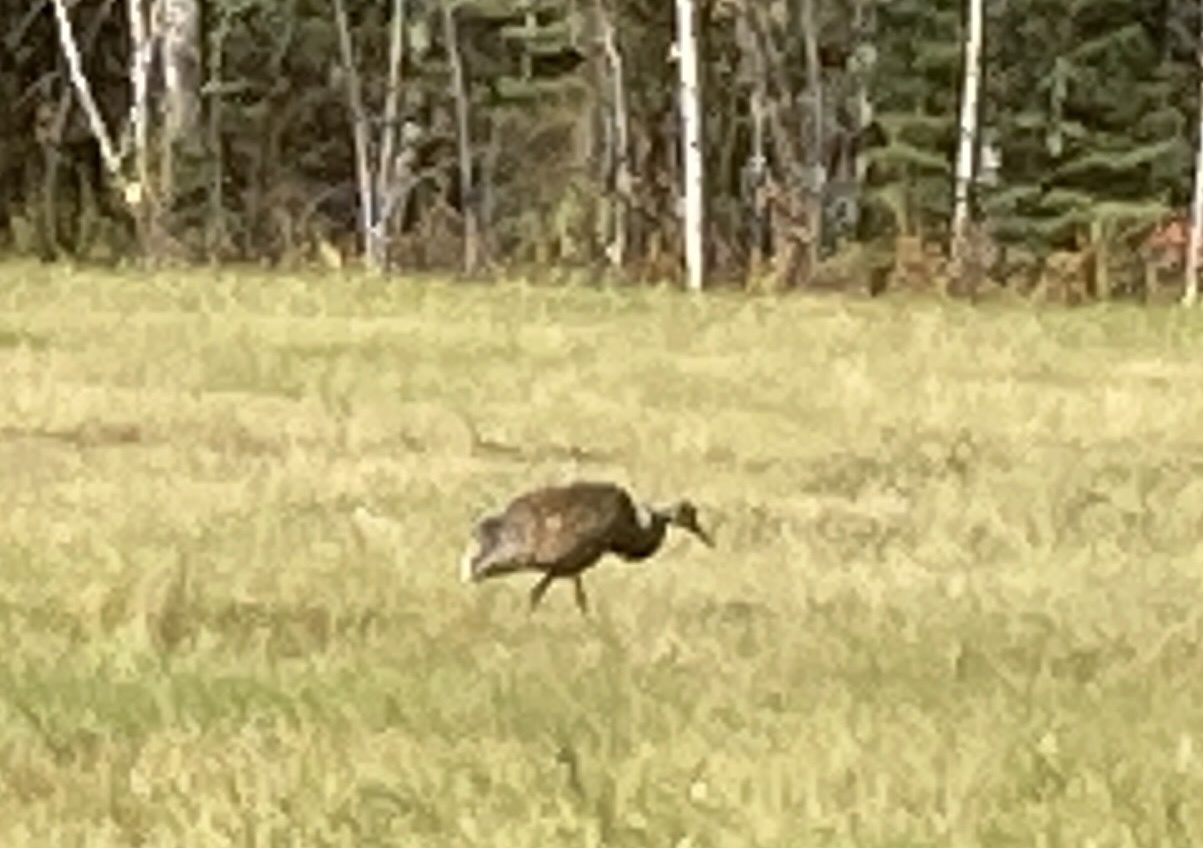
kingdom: Animalia
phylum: Chordata
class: Aves
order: Gruiformes
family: Gruidae
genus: Grus
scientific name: Grus canadensis
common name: Sandhill crane
